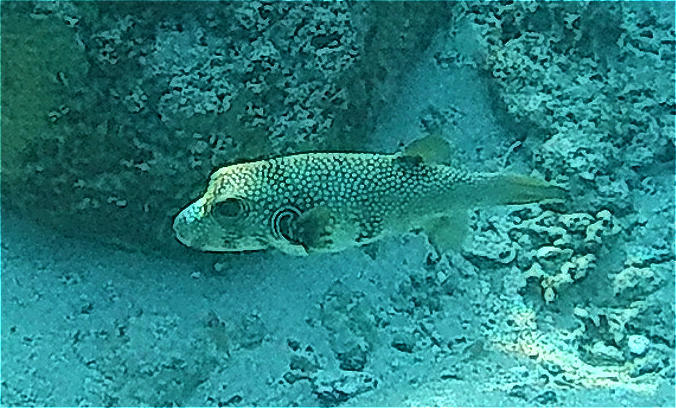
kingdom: Animalia
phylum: Chordata
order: Tetraodontiformes
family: Tetraodontidae
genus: Arothron
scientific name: Arothron hispidus
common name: Stripebelly puffer
